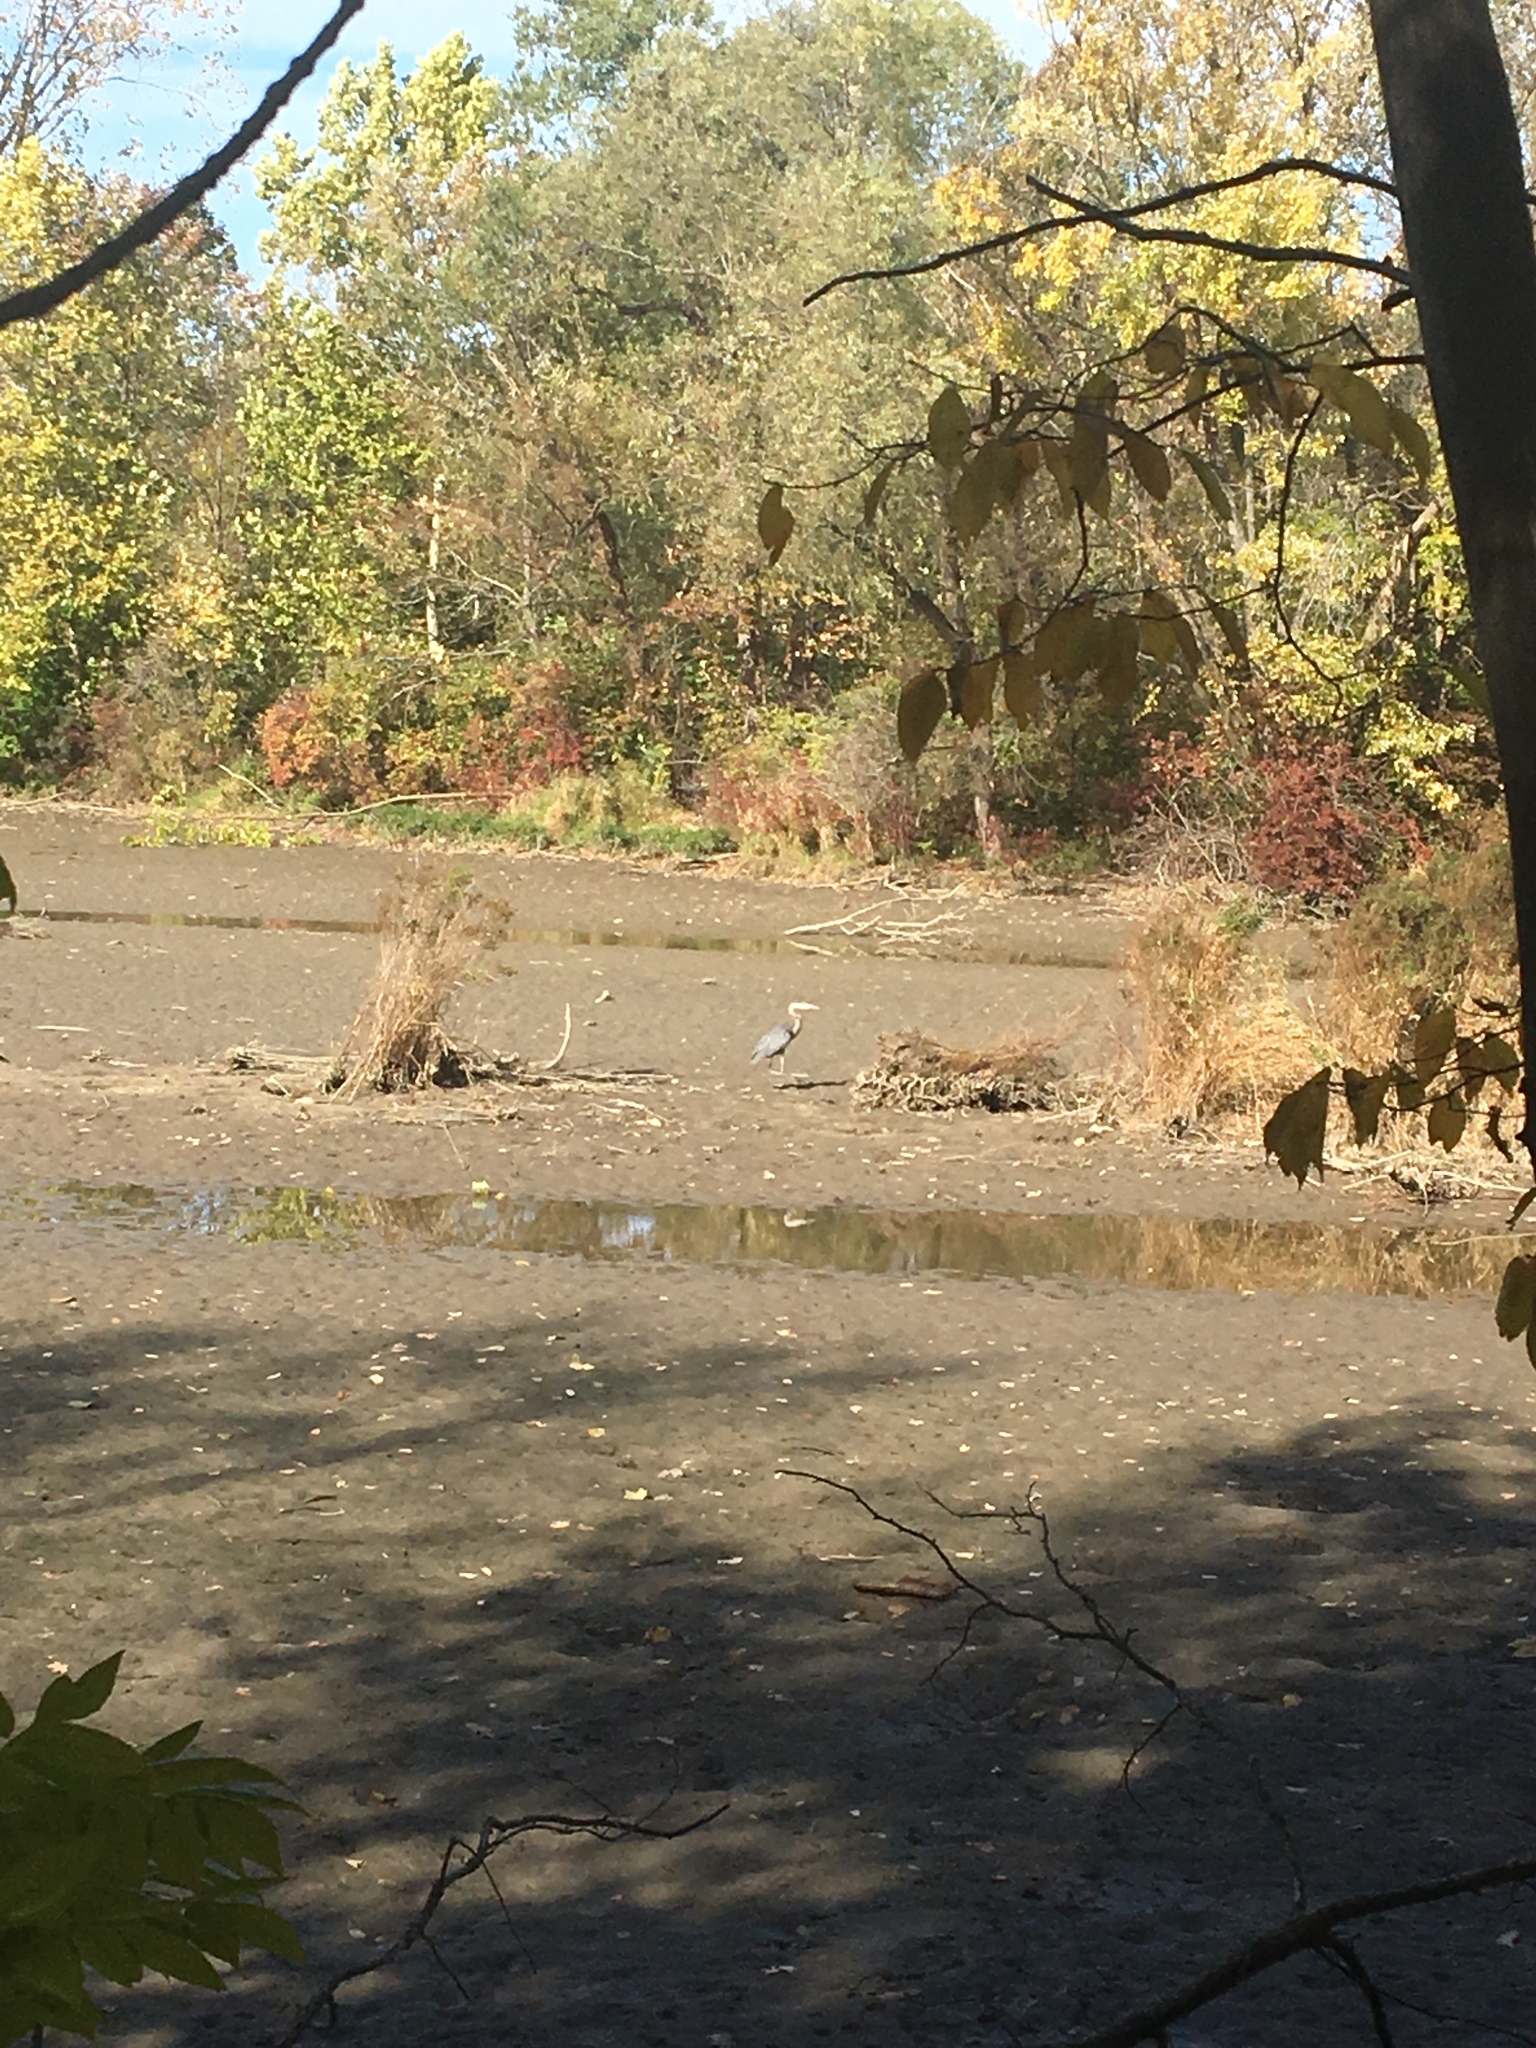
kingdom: Animalia
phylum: Chordata
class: Aves
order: Pelecaniformes
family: Ardeidae
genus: Ardea
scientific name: Ardea herodias
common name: Great blue heron
